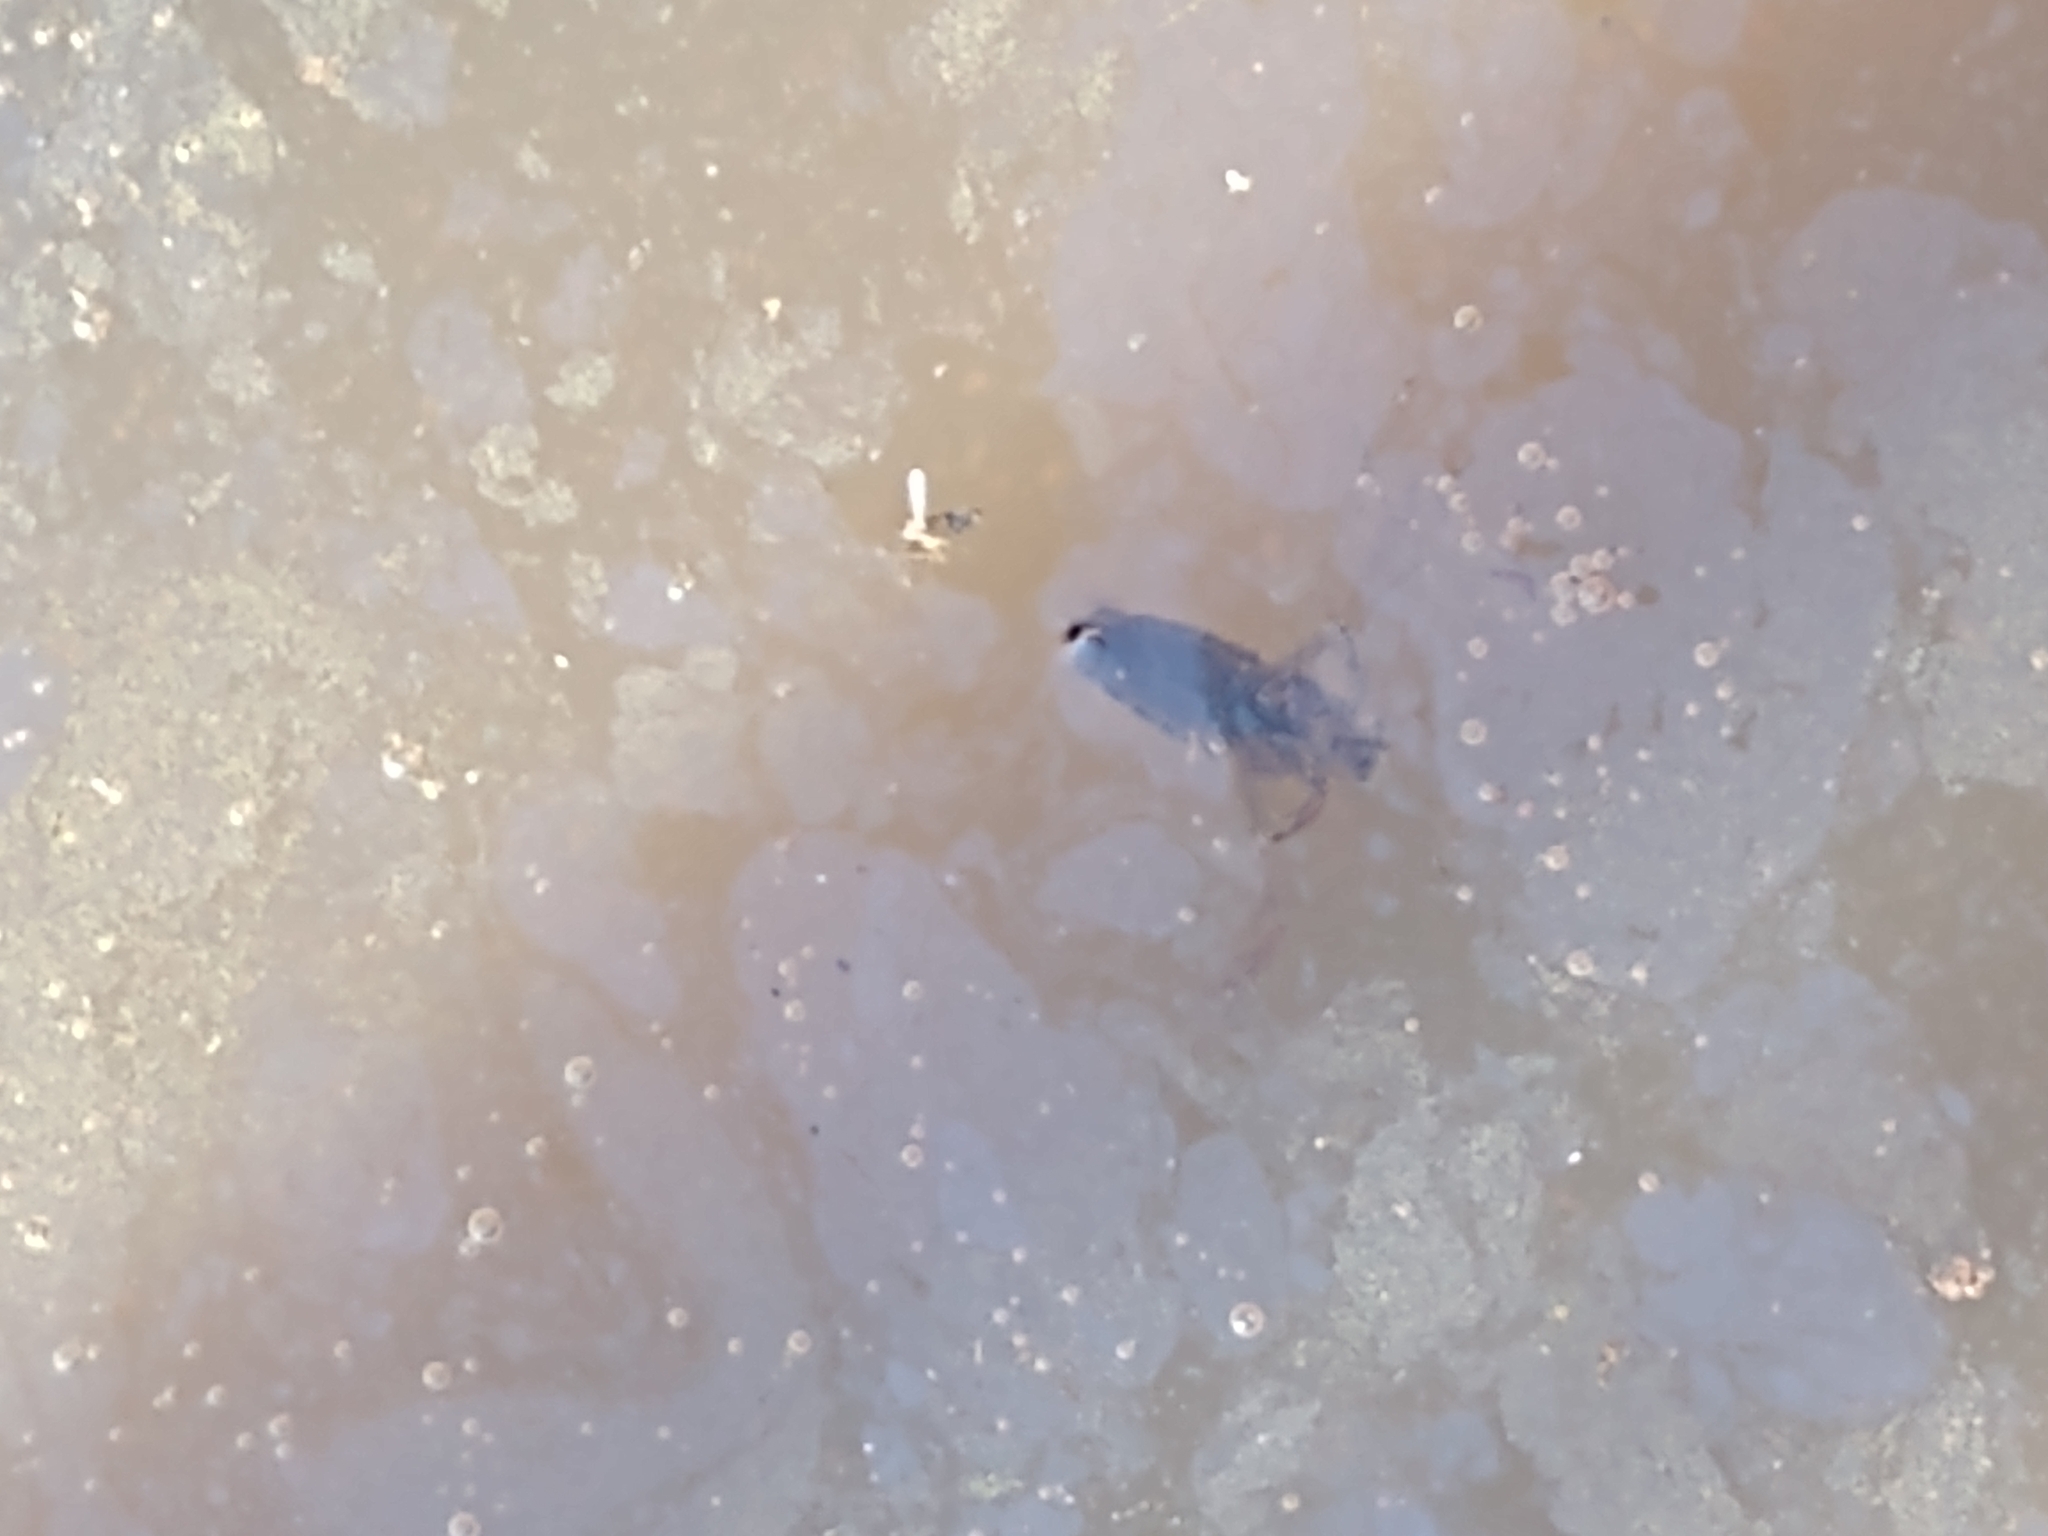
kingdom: Animalia
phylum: Arthropoda
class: Insecta
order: Hemiptera
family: Notonectidae
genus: Notonecta
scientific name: Notonecta
